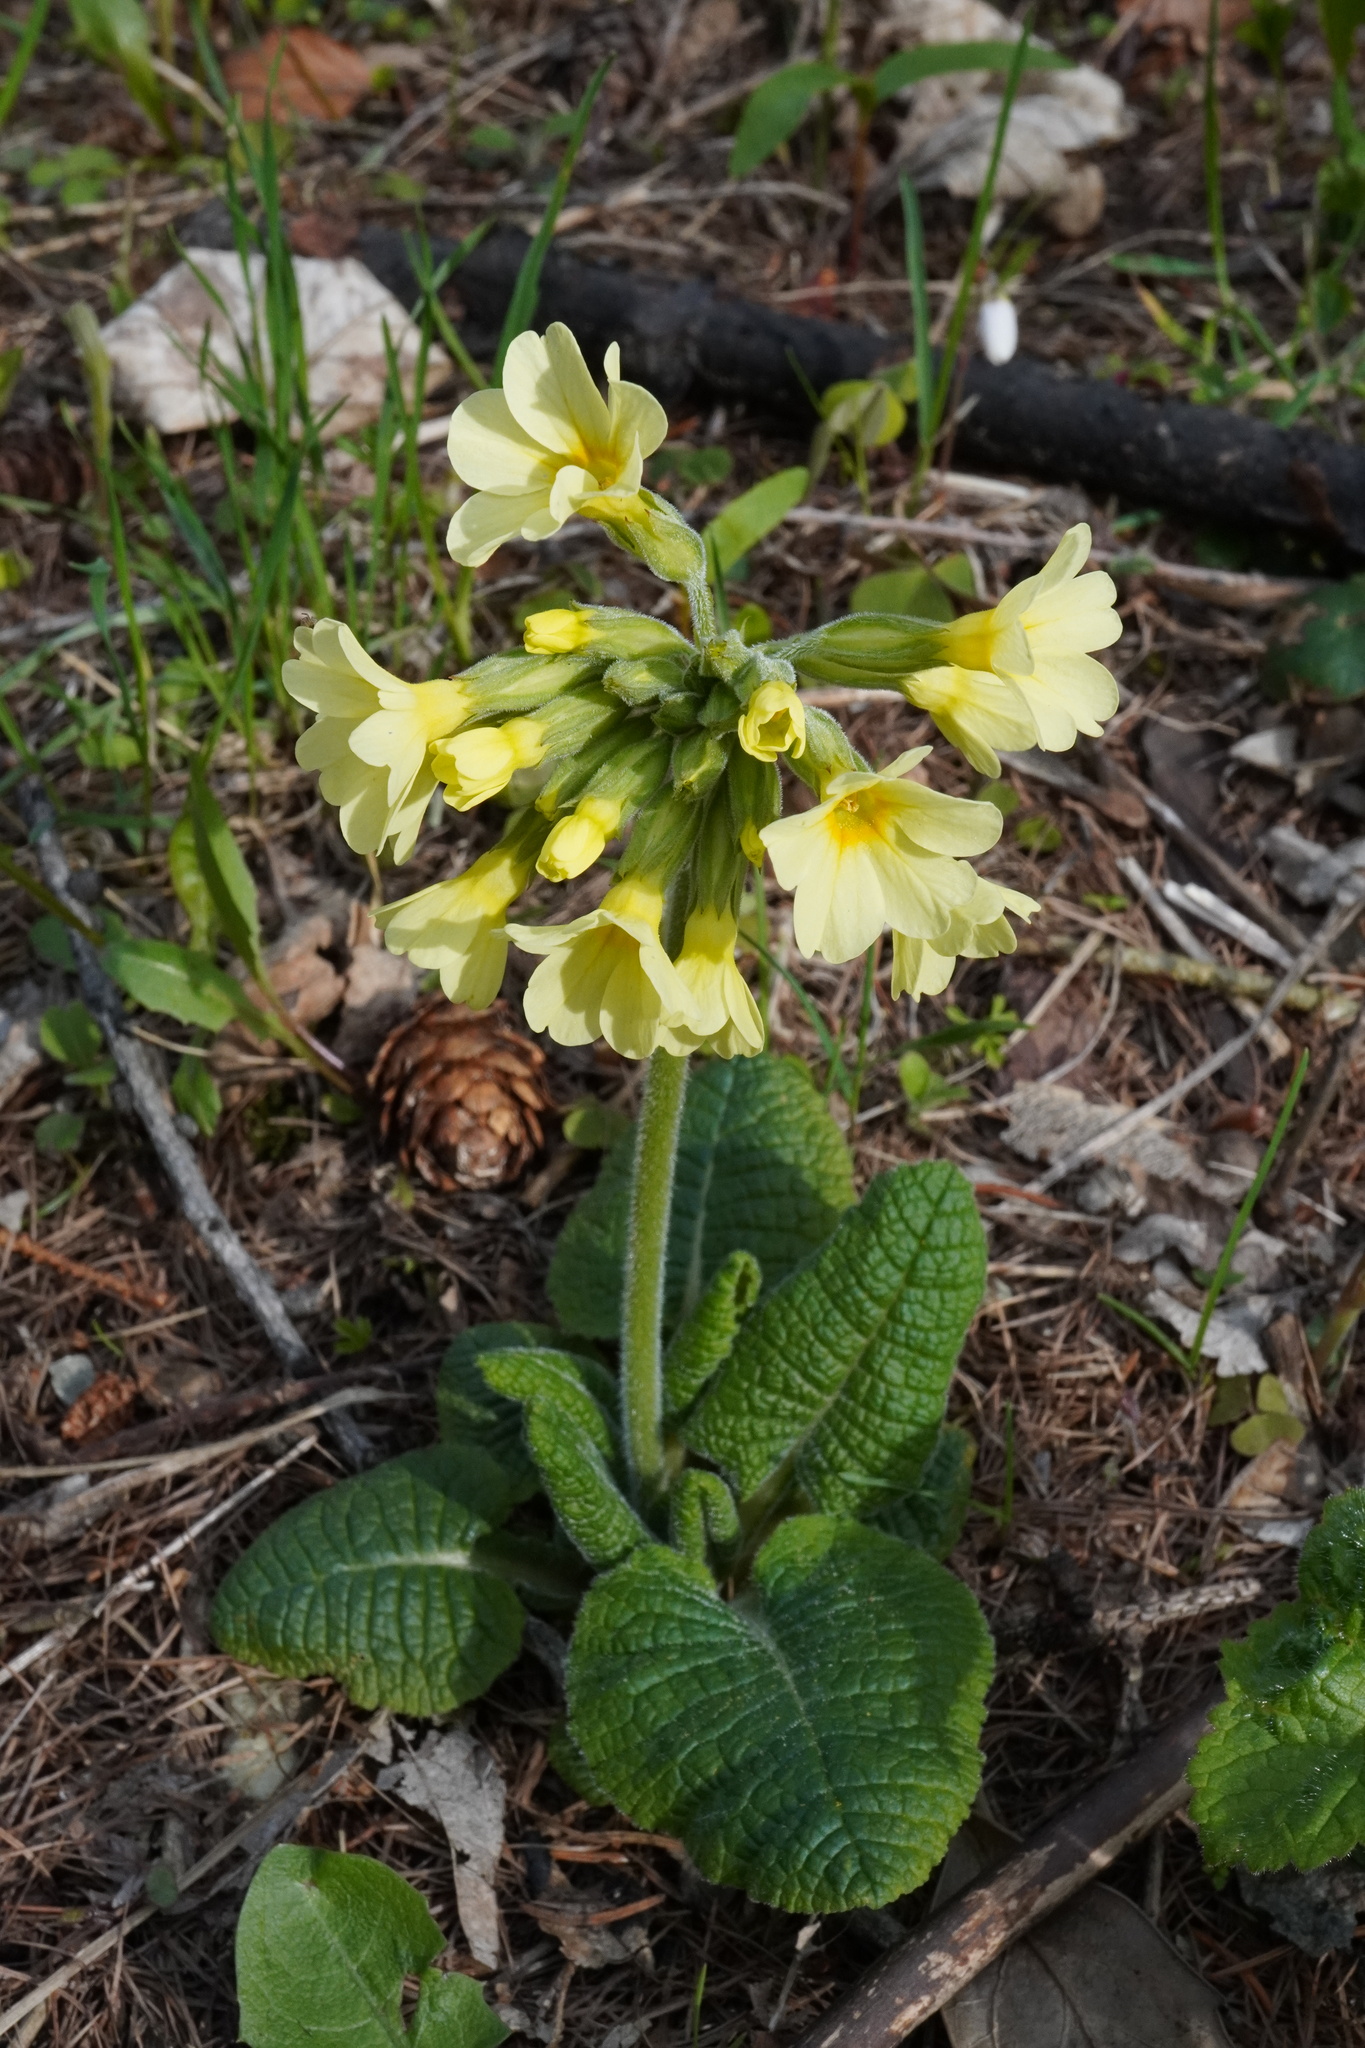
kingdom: Plantae
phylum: Tracheophyta
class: Magnoliopsida
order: Ericales
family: Primulaceae
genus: Primula
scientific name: Primula elatior
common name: Oxlip
